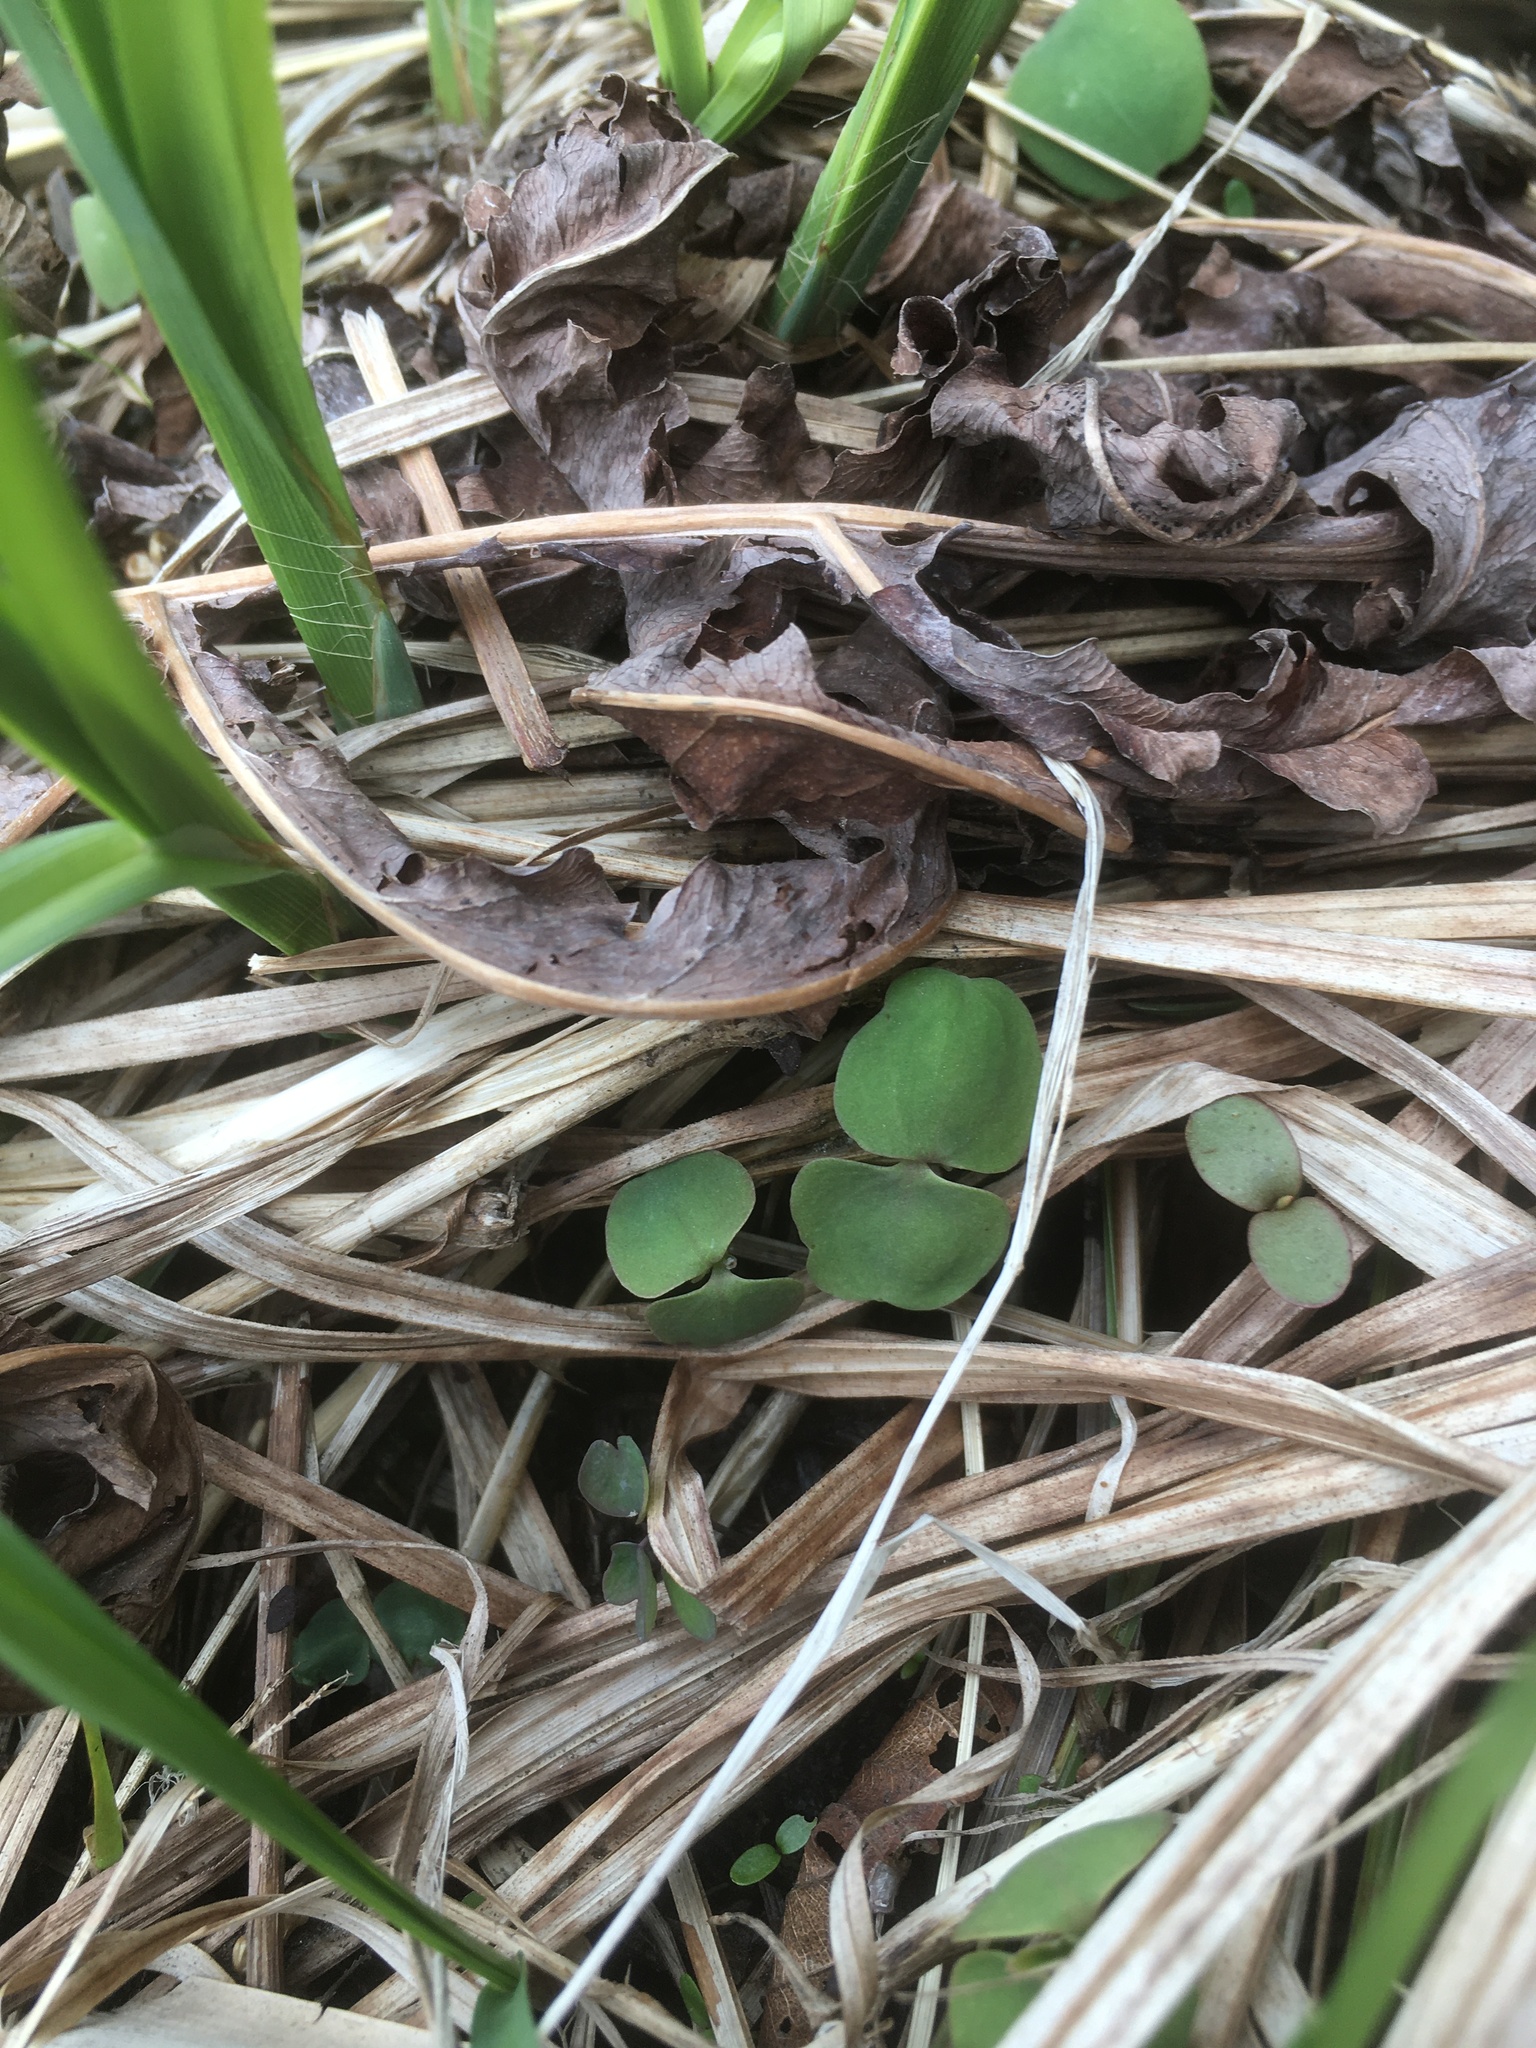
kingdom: Plantae
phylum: Tracheophyta
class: Magnoliopsida
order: Ericales
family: Balsaminaceae
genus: Impatiens
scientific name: Impatiens capensis
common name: Orange balsam
